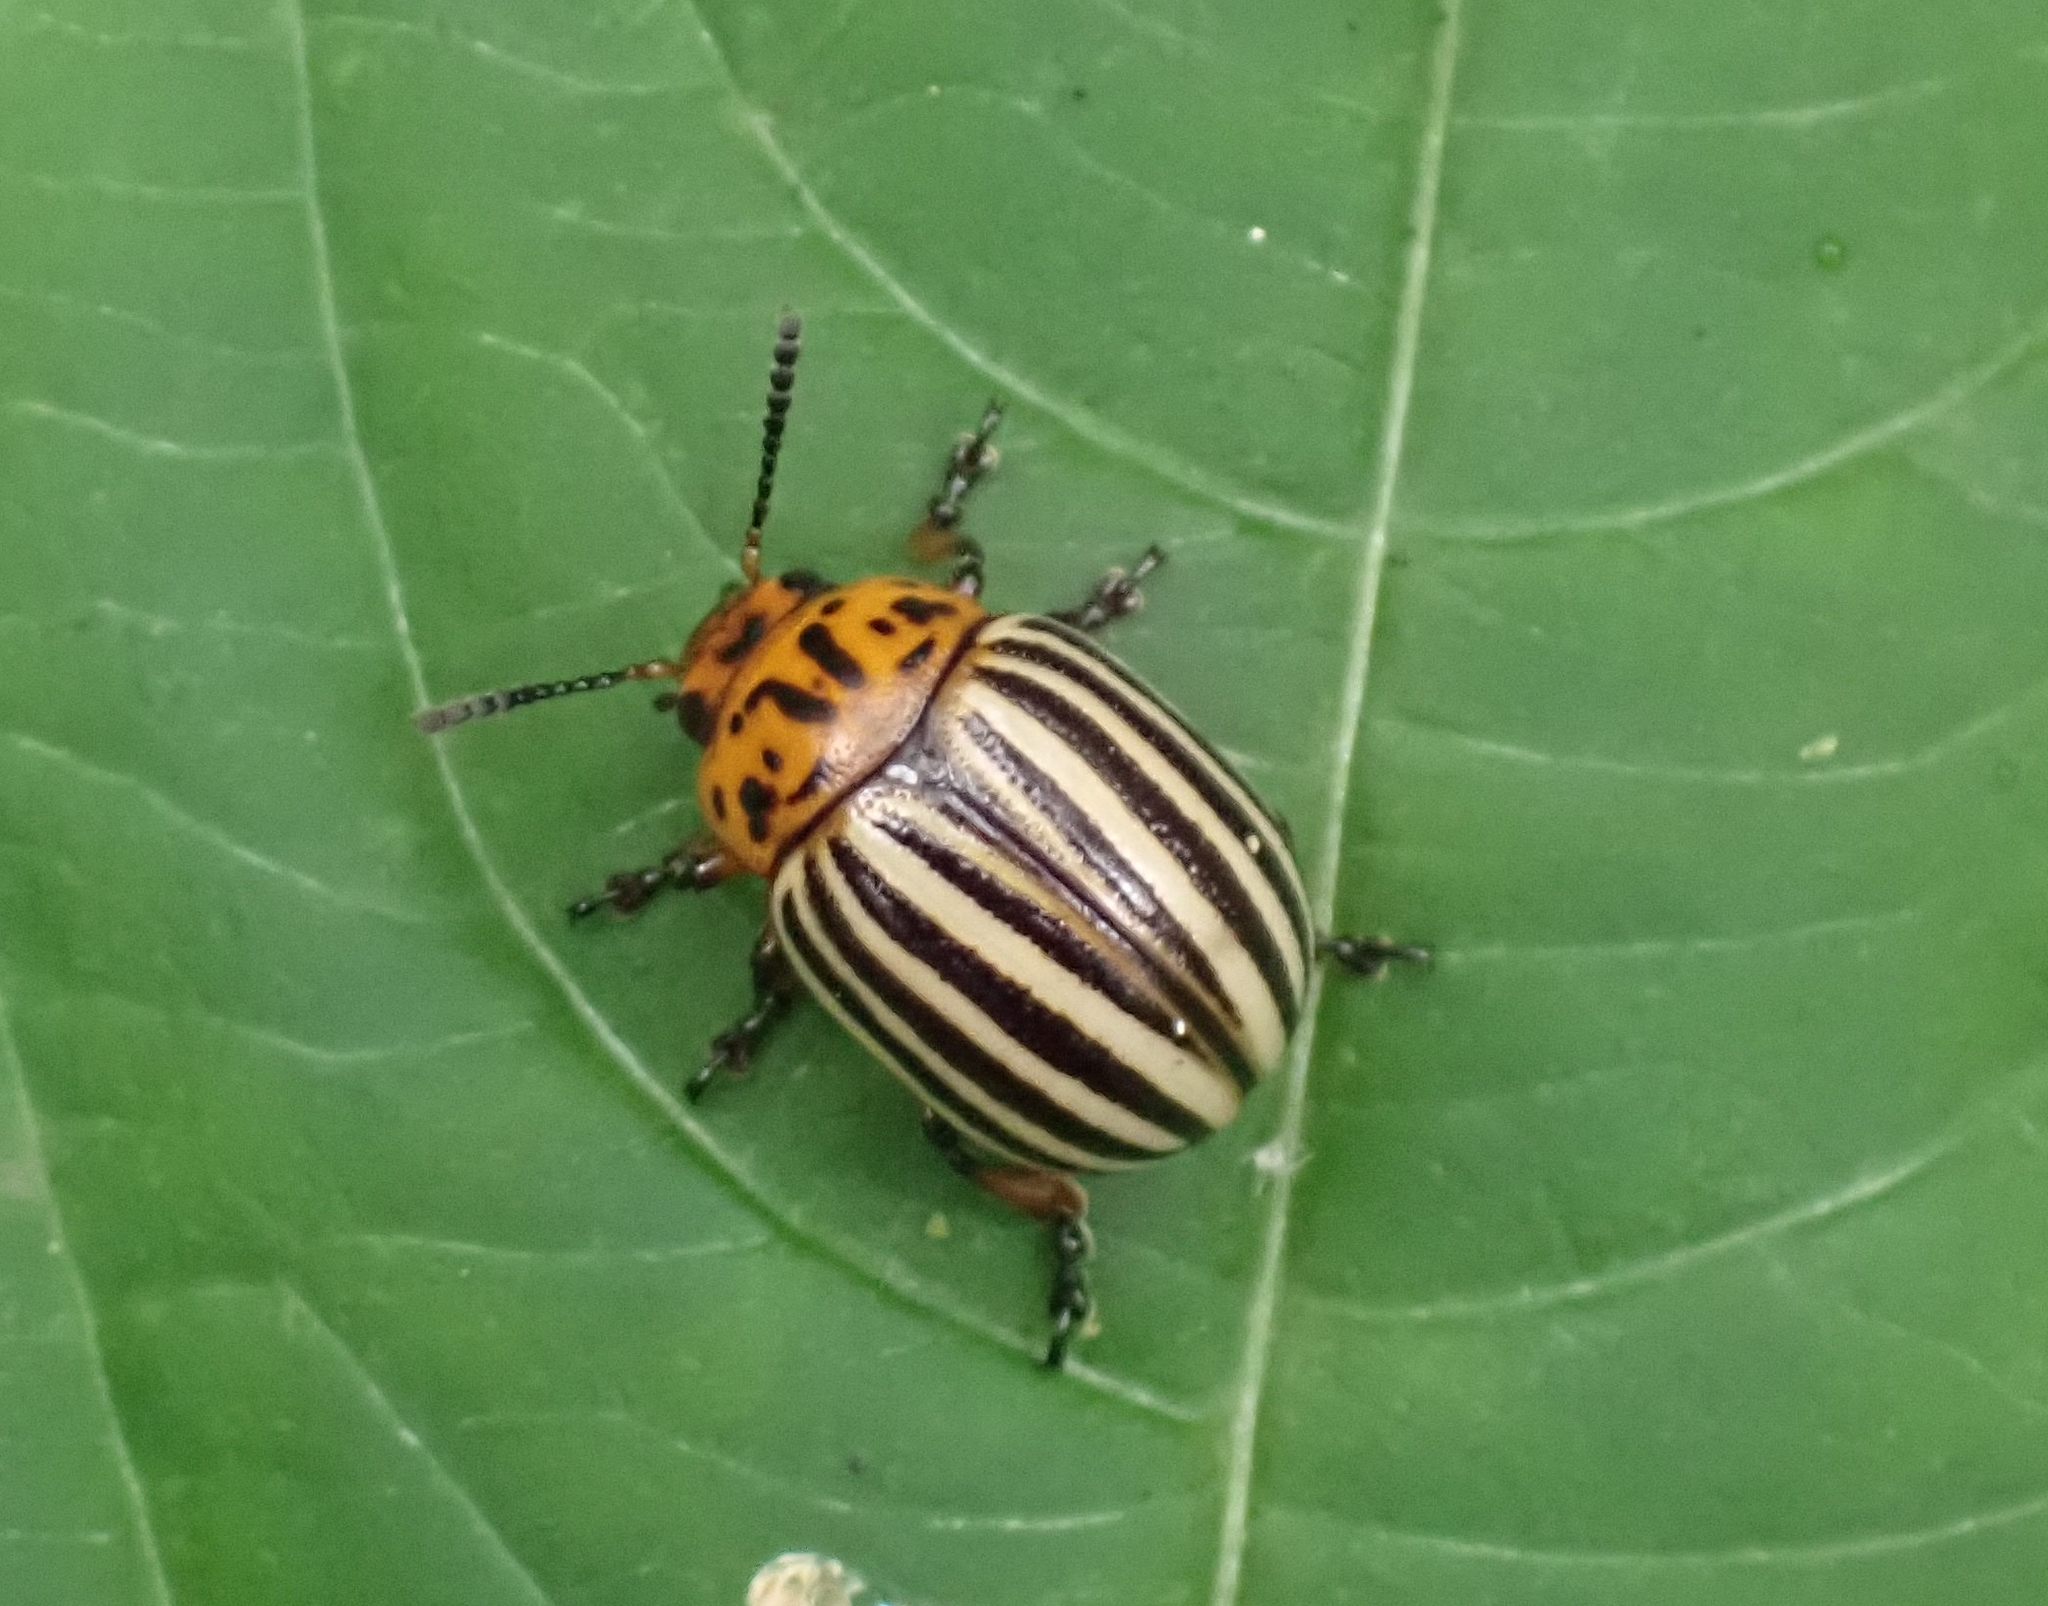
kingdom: Animalia
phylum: Arthropoda
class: Insecta
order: Coleoptera
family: Chrysomelidae
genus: Leptinotarsa
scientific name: Leptinotarsa decemlineata
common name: Colorado potato beetle
